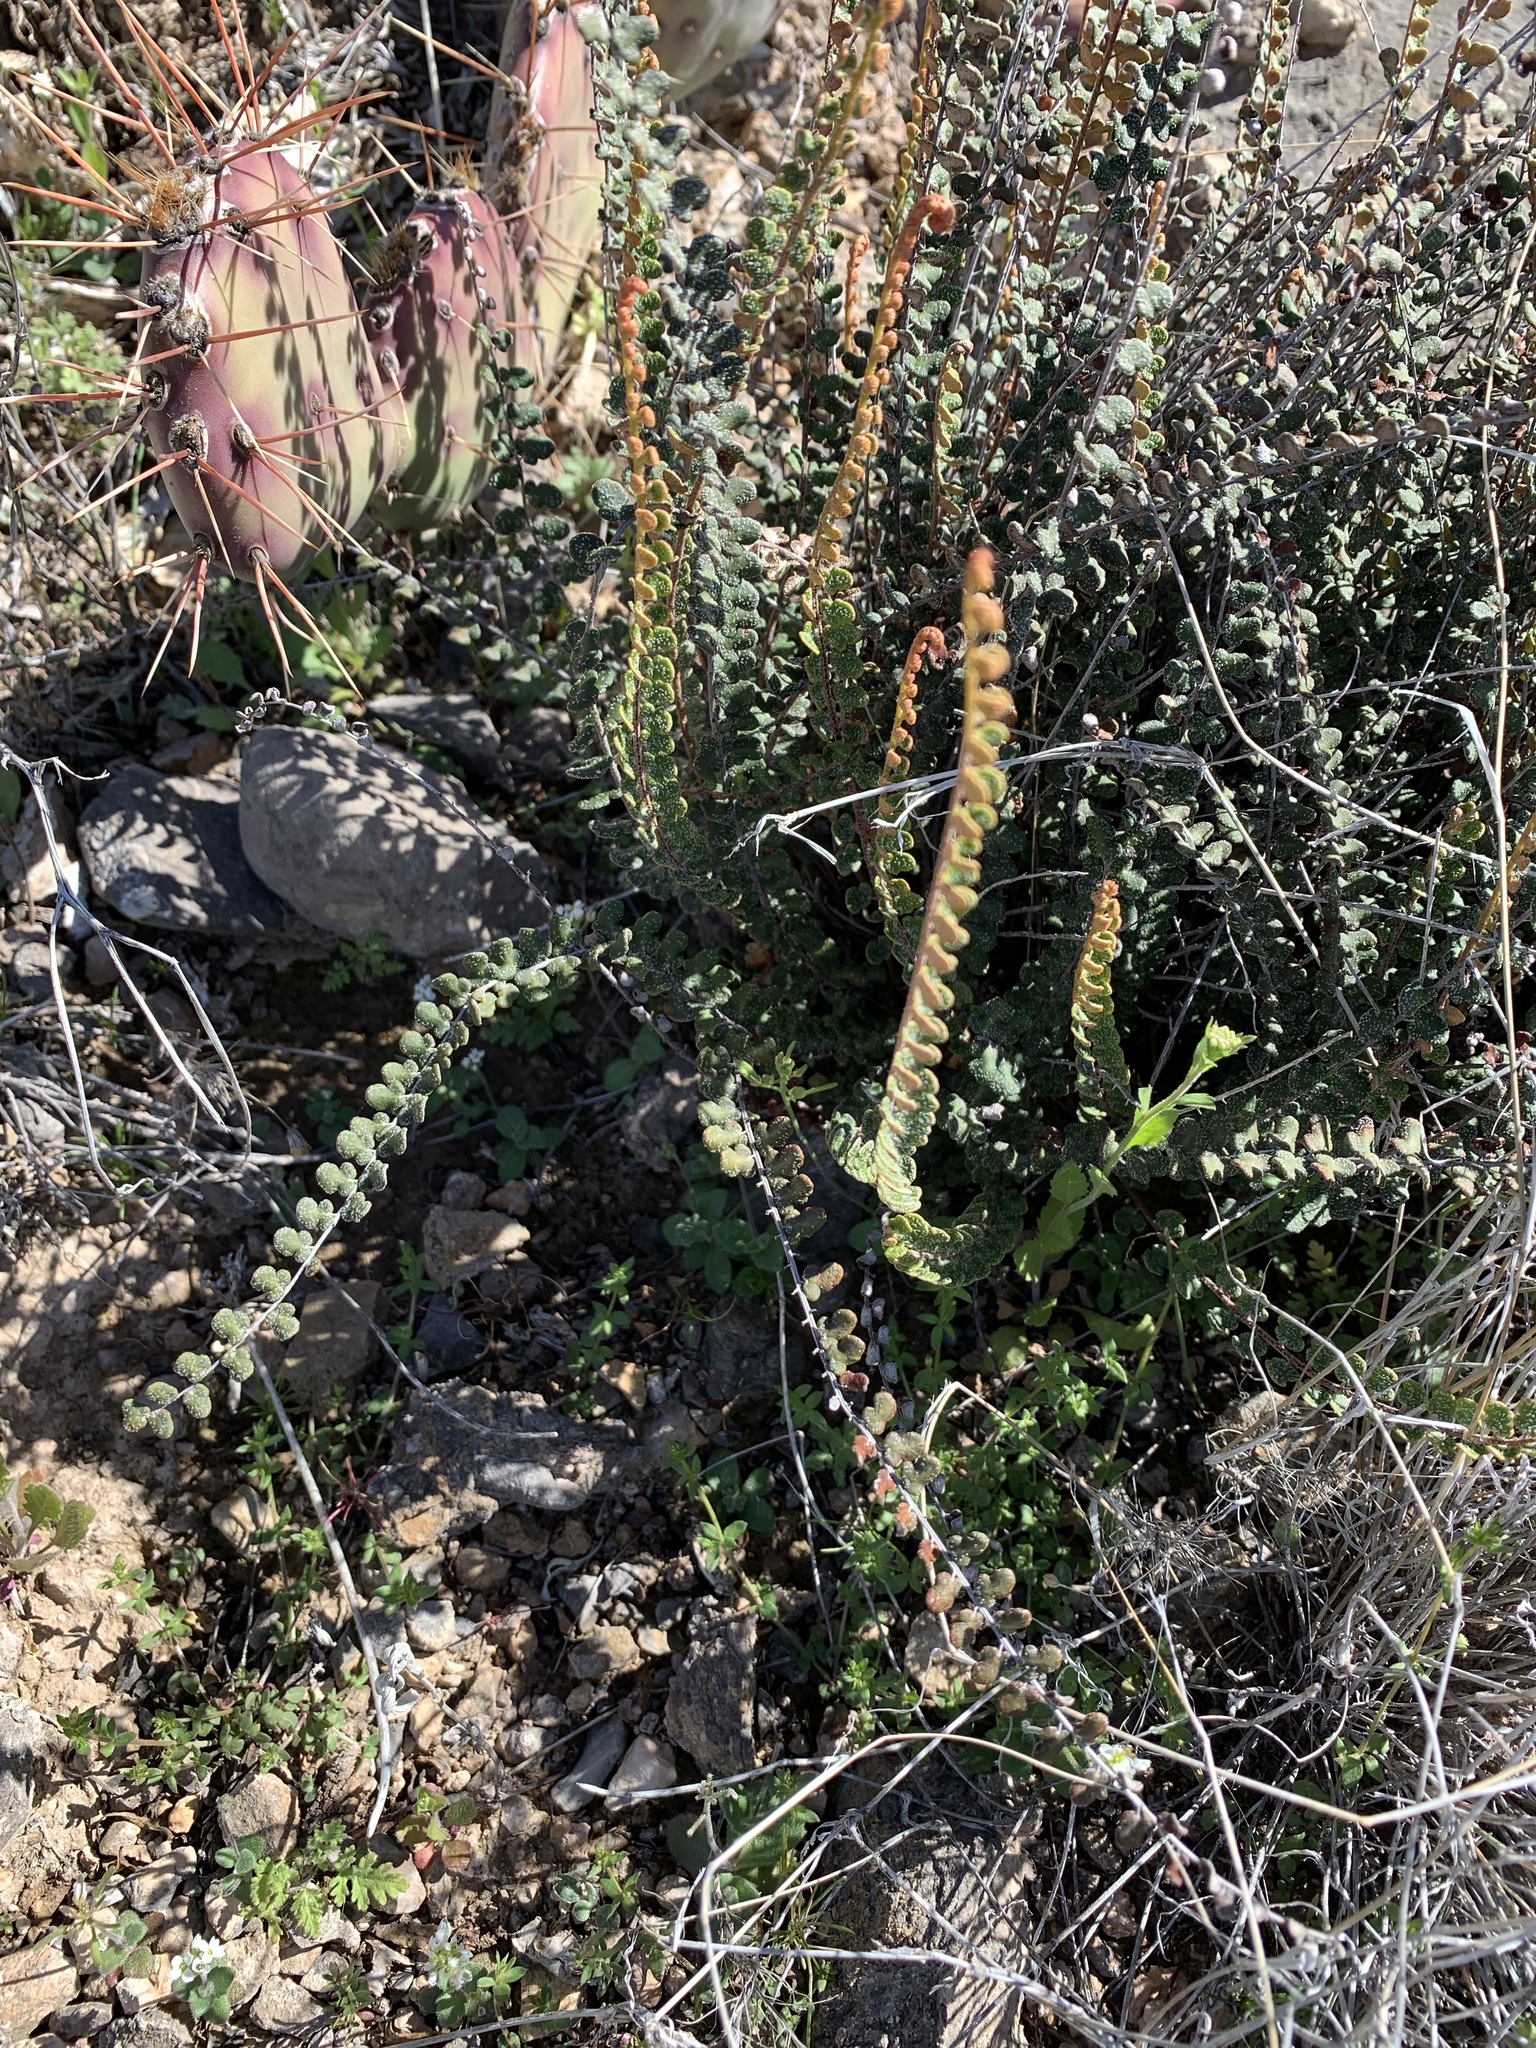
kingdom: Plantae
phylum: Tracheophyta
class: Polypodiopsida
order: Polypodiales
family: Pteridaceae
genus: Astrolepis
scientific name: Astrolepis cochisensis
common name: Scaly cloak fern
